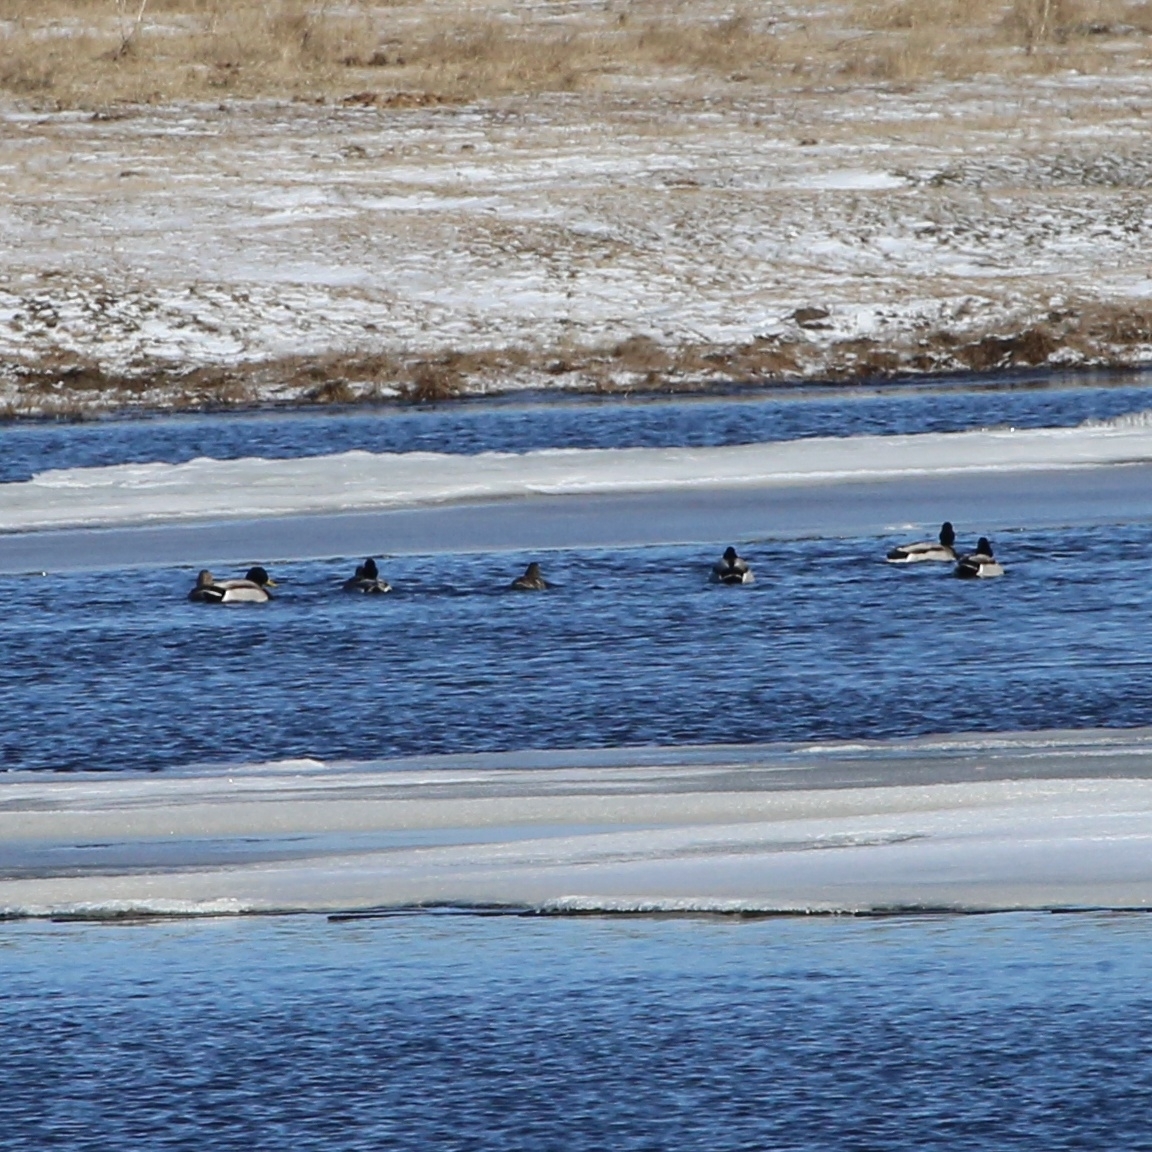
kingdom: Animalia
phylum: Chordata
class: Aves
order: Anseriformes
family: Anatidae
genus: Anas
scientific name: Anas platyrhynchos
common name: Mallard
